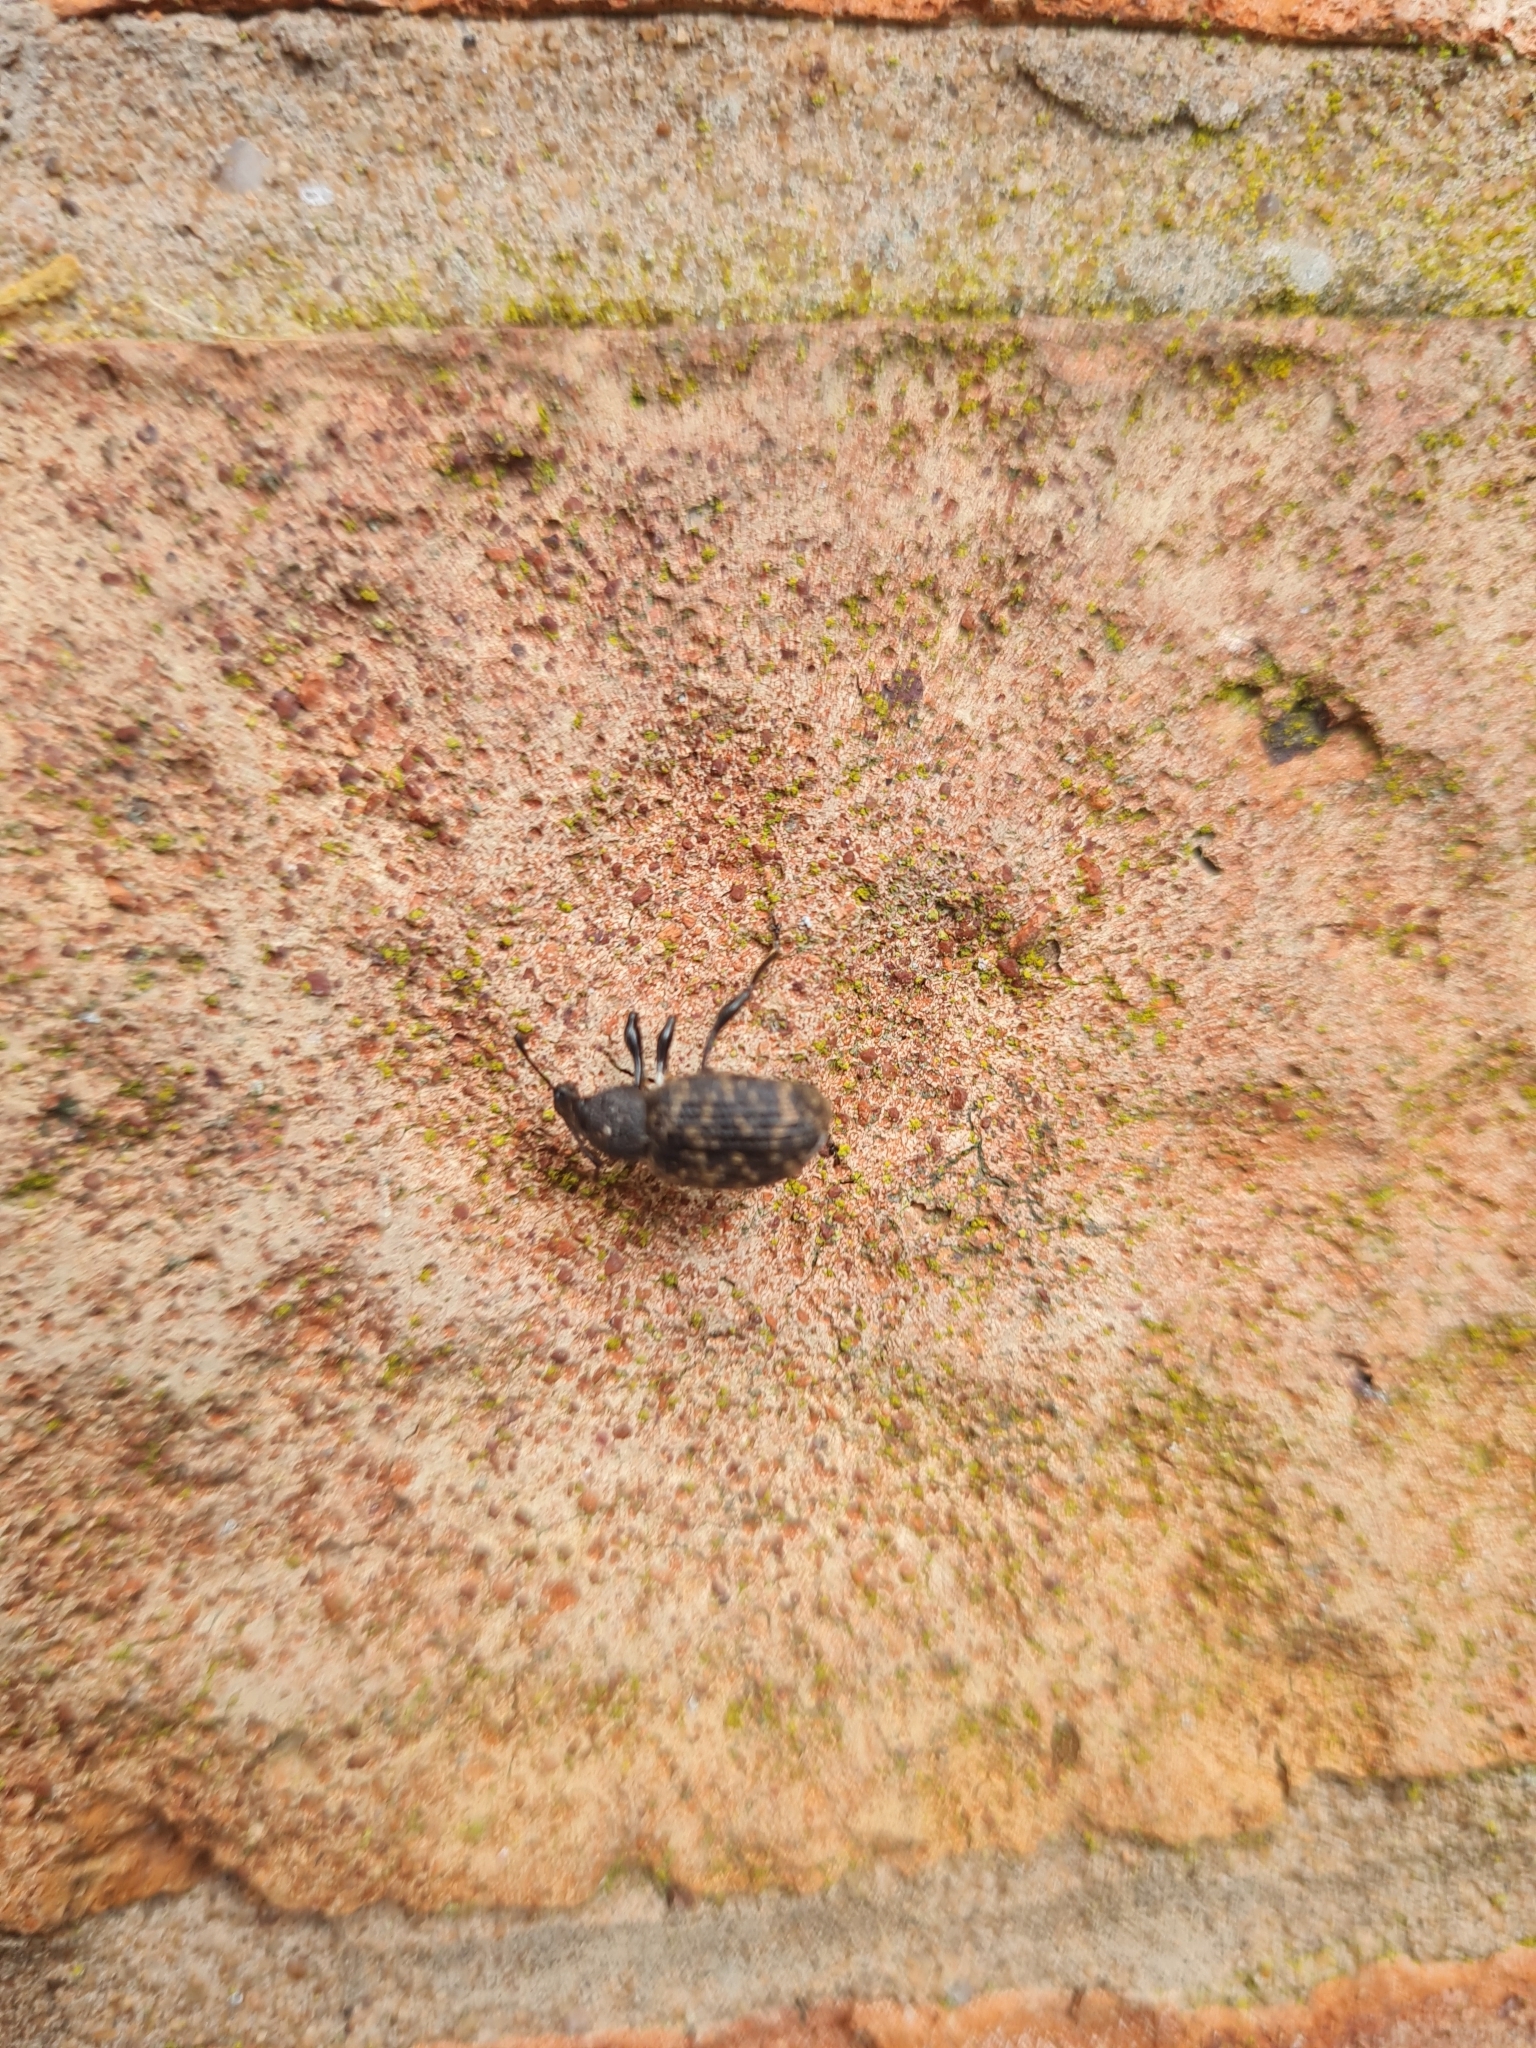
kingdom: Animalia
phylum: Arthropoda
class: Insecta
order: Coleoptera
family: Curculionidae
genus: Otiorhynchus
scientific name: Otiorhynchus sulcatus
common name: Black vine weevil
